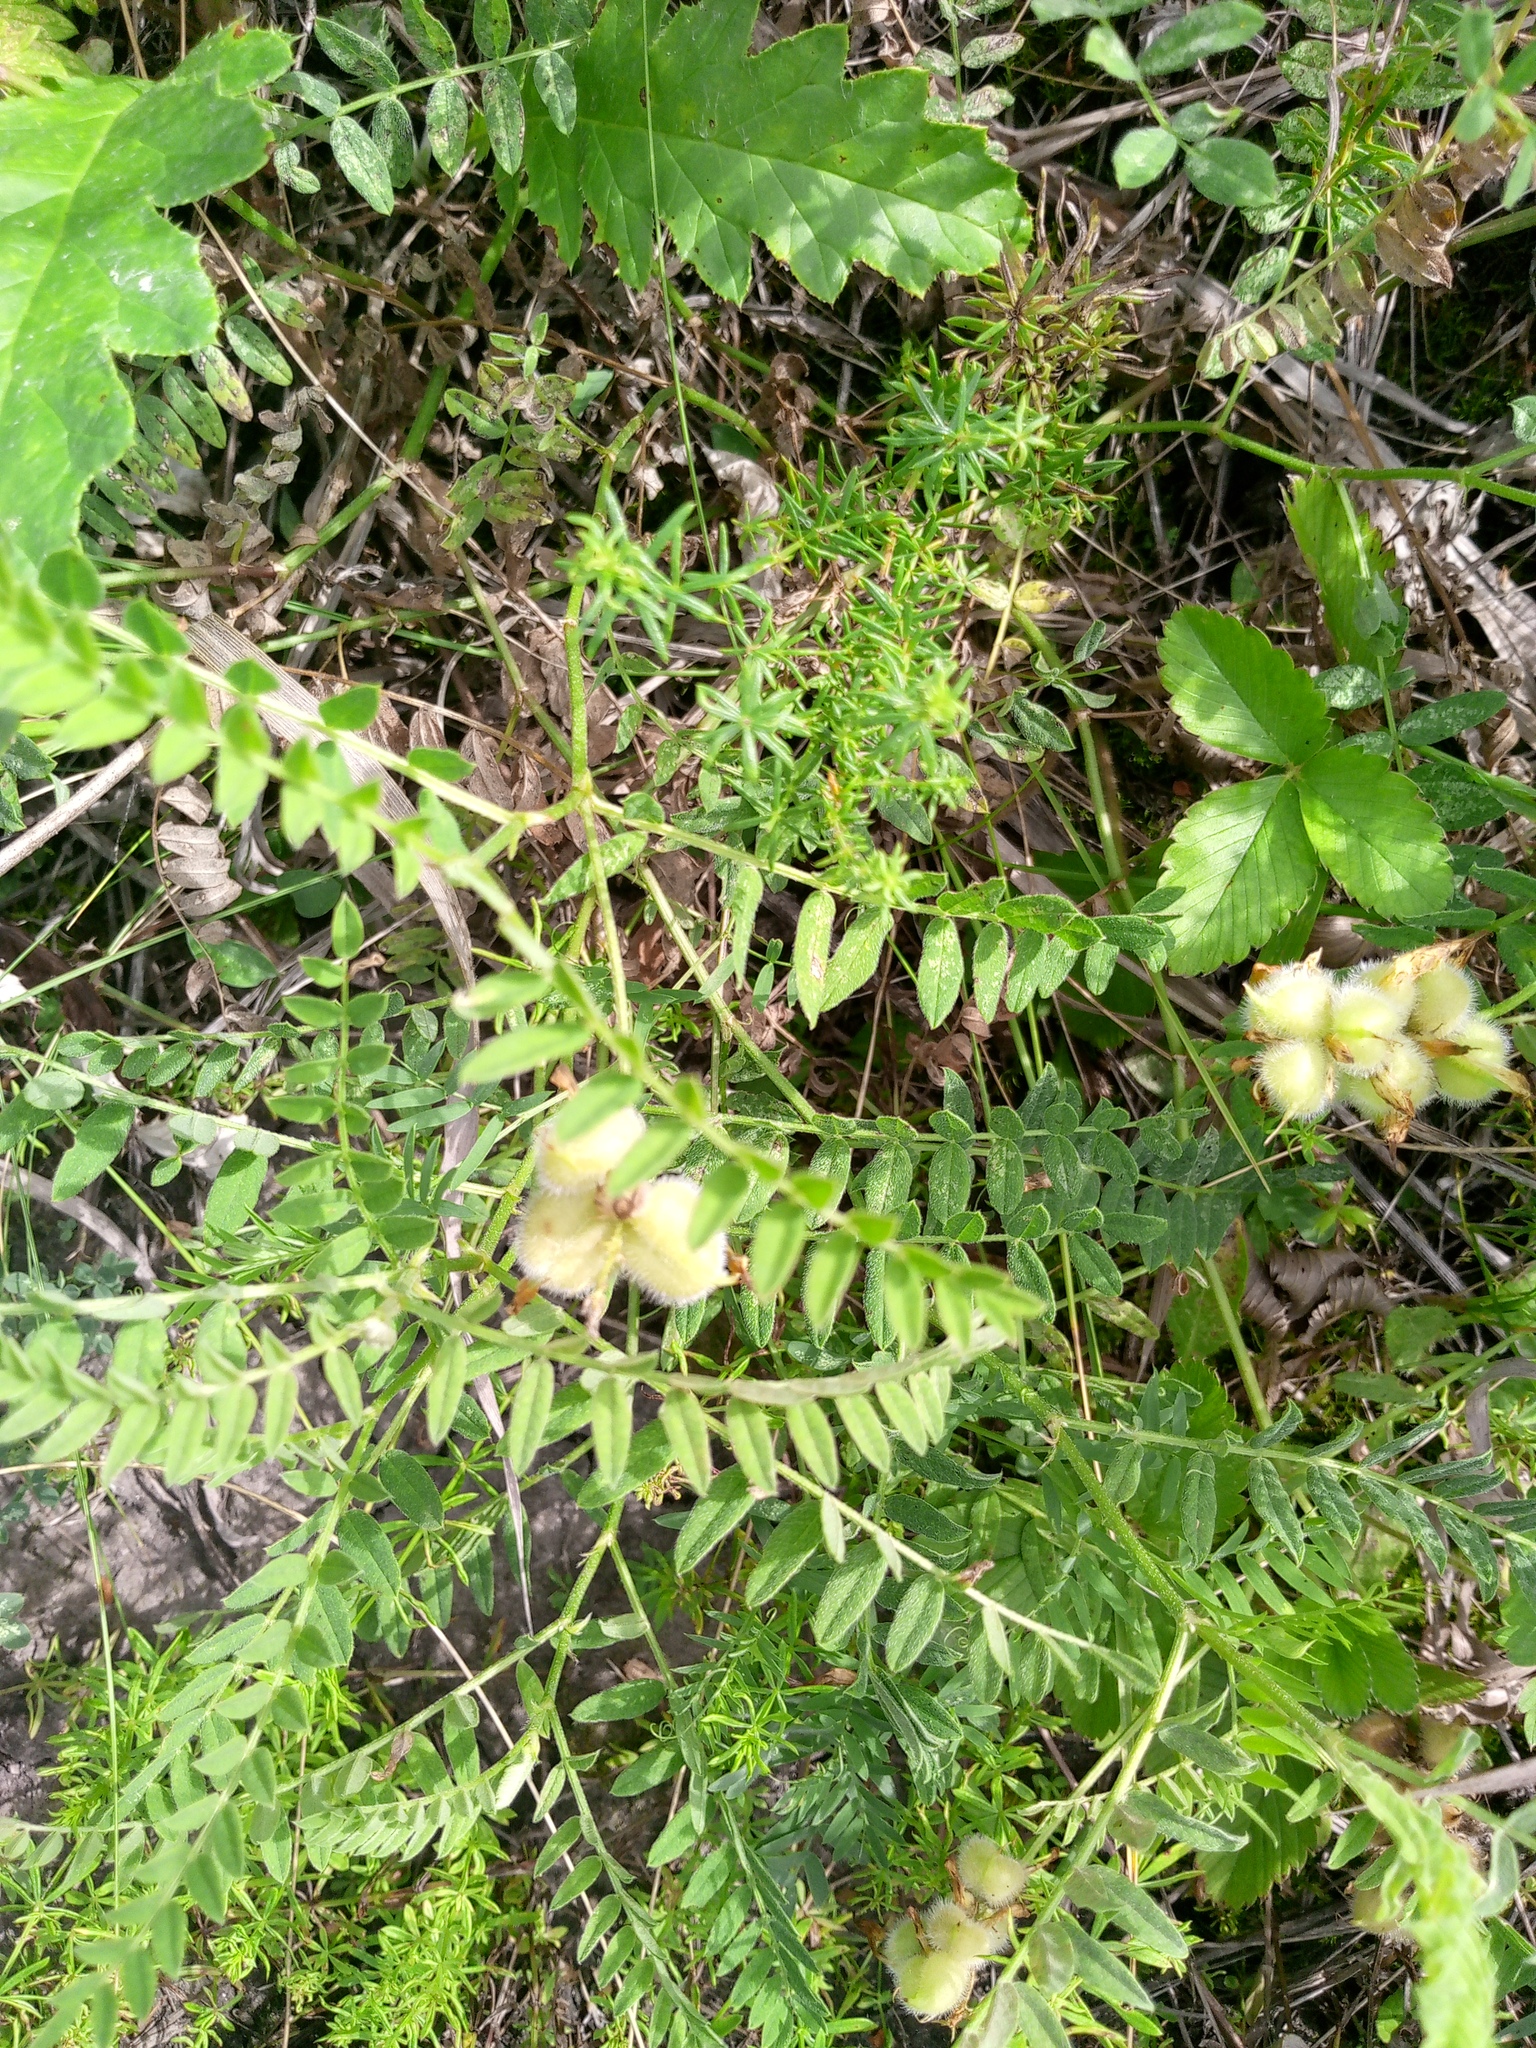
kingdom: Plantae
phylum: Tracheophyta
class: Magnoliopsida
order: Fabales
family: Fabaceae
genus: Astragalus
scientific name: Astragalus cicer
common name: Chick-pea milk-vetch
